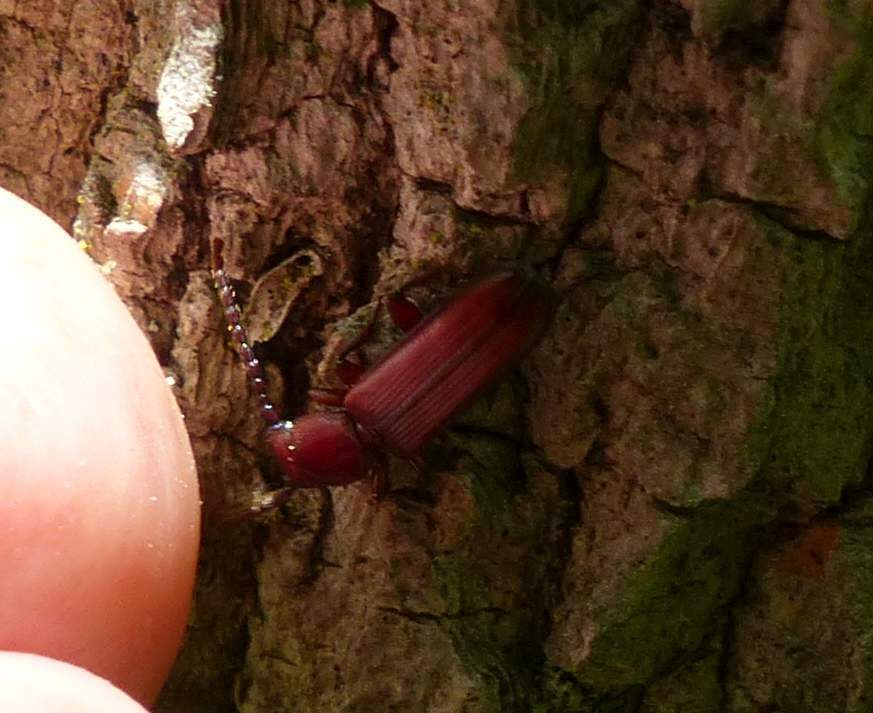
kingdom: Animalia
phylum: Arthropoda
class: Insecta
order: Coleoptera
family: Passandridae
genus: Catogenus
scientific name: Catogenus rufus
